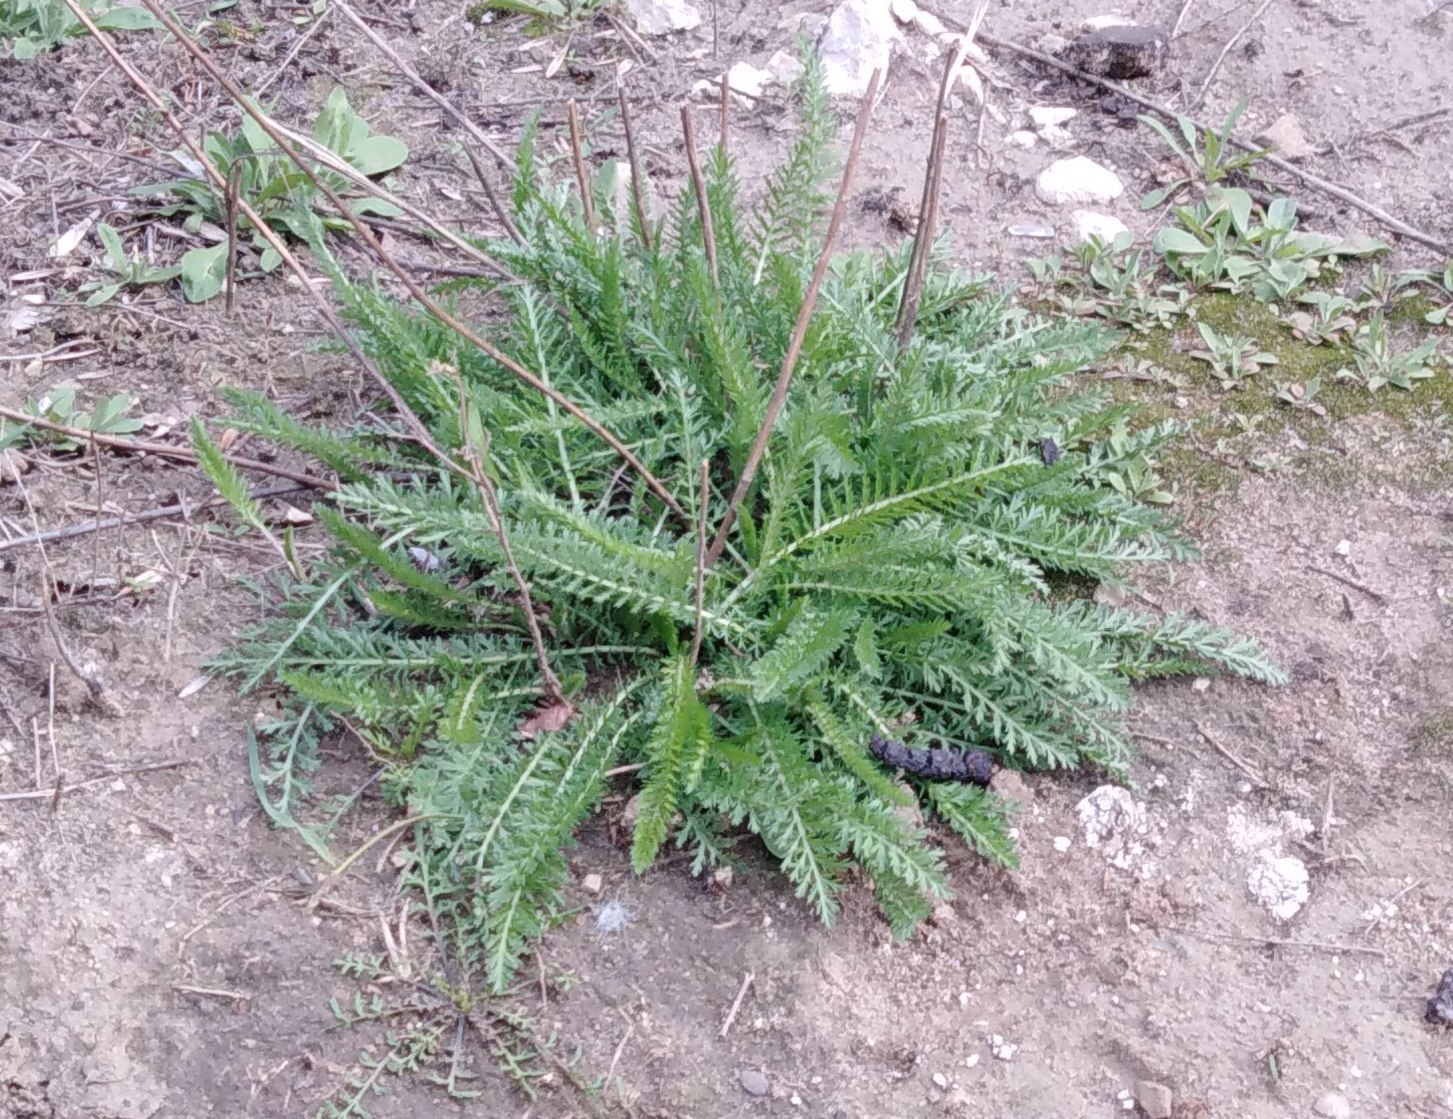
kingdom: Plantae
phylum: Tracheophyta
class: Magnoliopsida
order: Asterales
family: Asteraceae
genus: Achillea
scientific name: Achillea millefolium
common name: Yarrow
